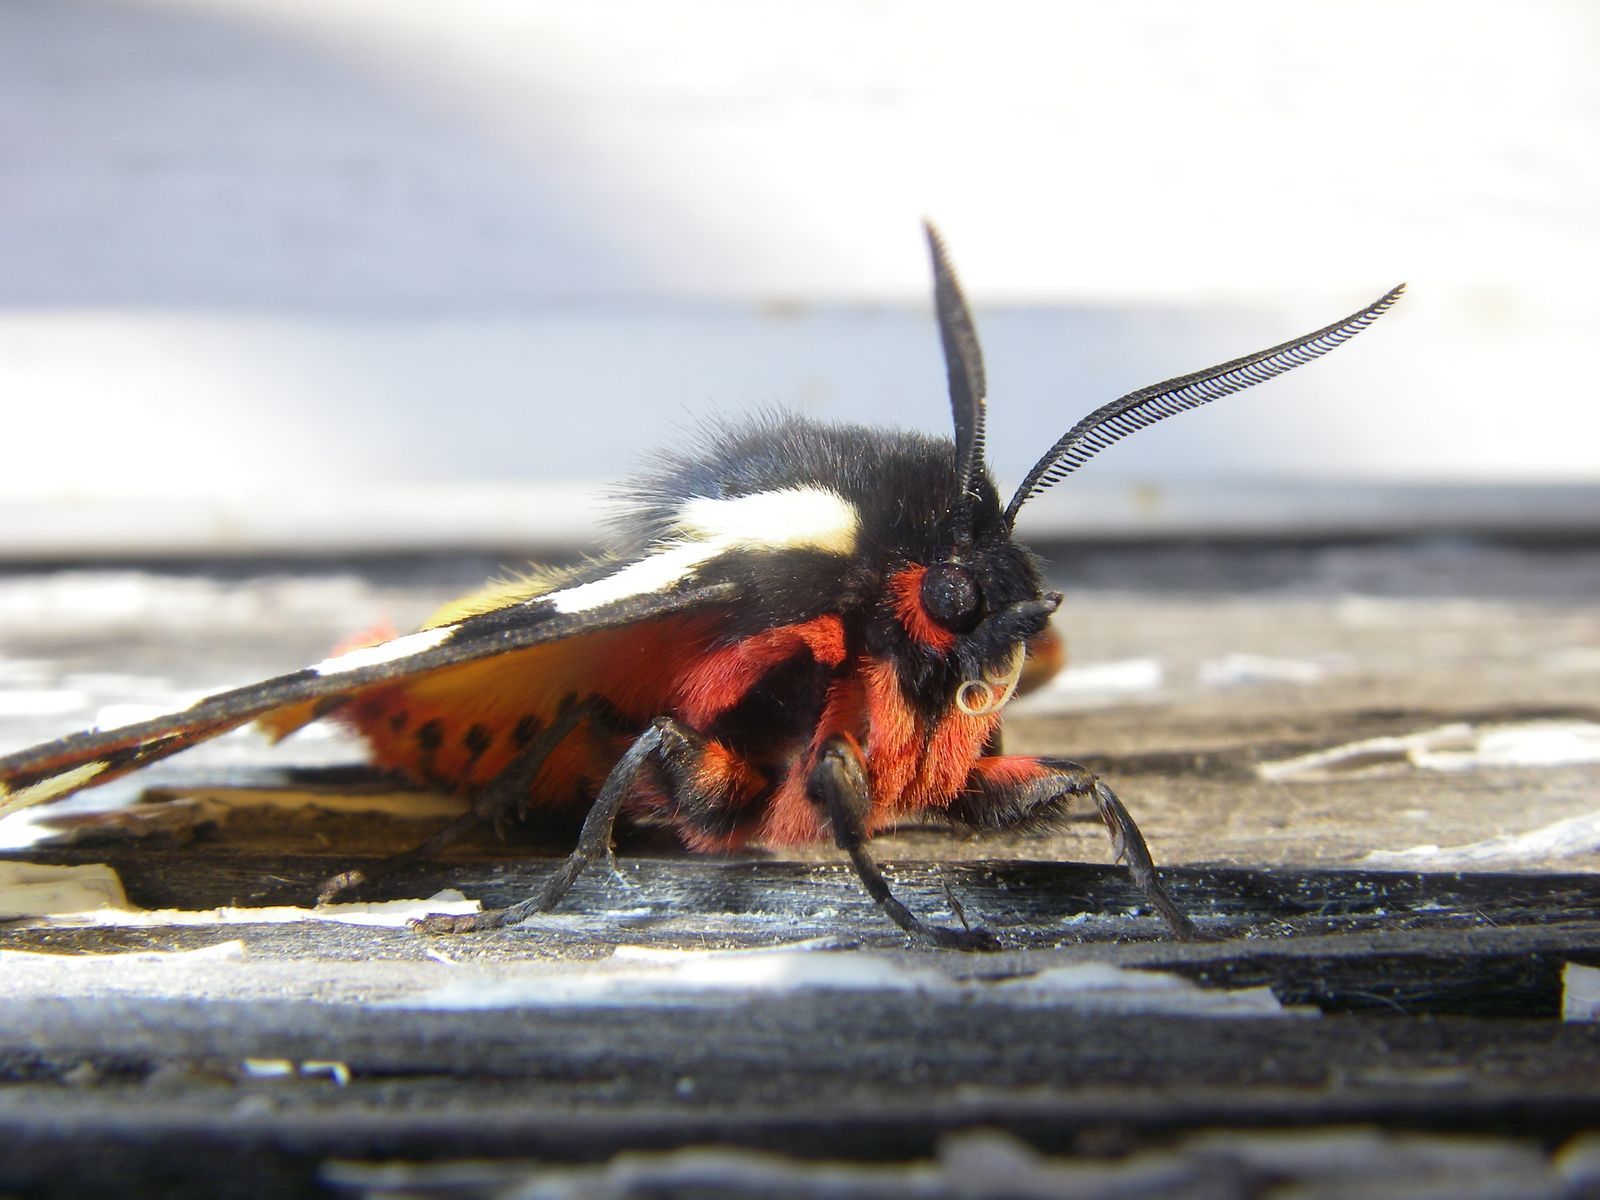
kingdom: Animalia
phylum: Arthropoda
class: Insecta
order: Lepidoptera
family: Erebidae
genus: Epicallia
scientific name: Epicallia villica
